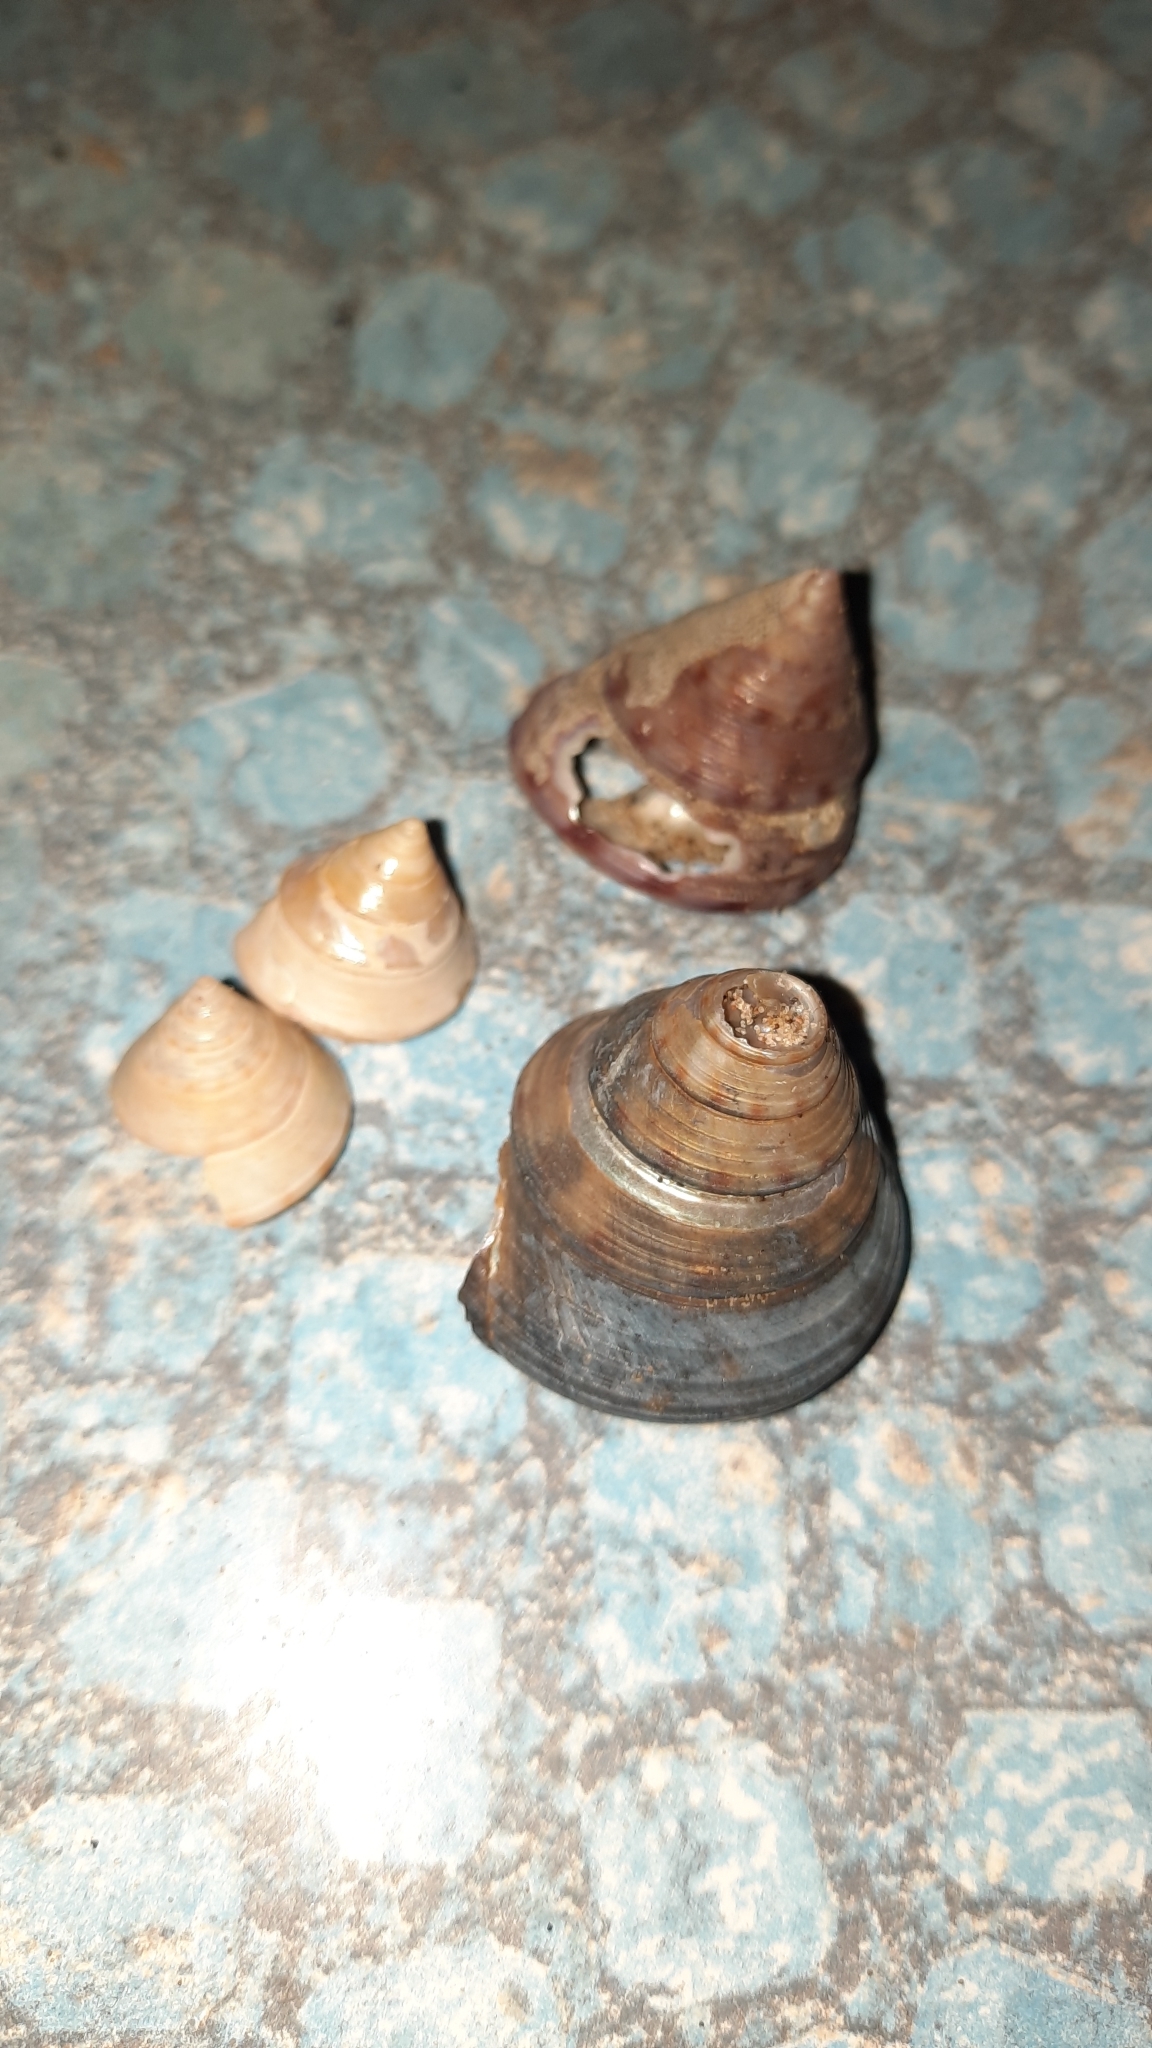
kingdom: Animalia
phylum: Mollusca
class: Gastropoda
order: Trochida
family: Calliostomatidae
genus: Calliostoma
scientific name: Calliostoma zizyphinum
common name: Painted top shell
